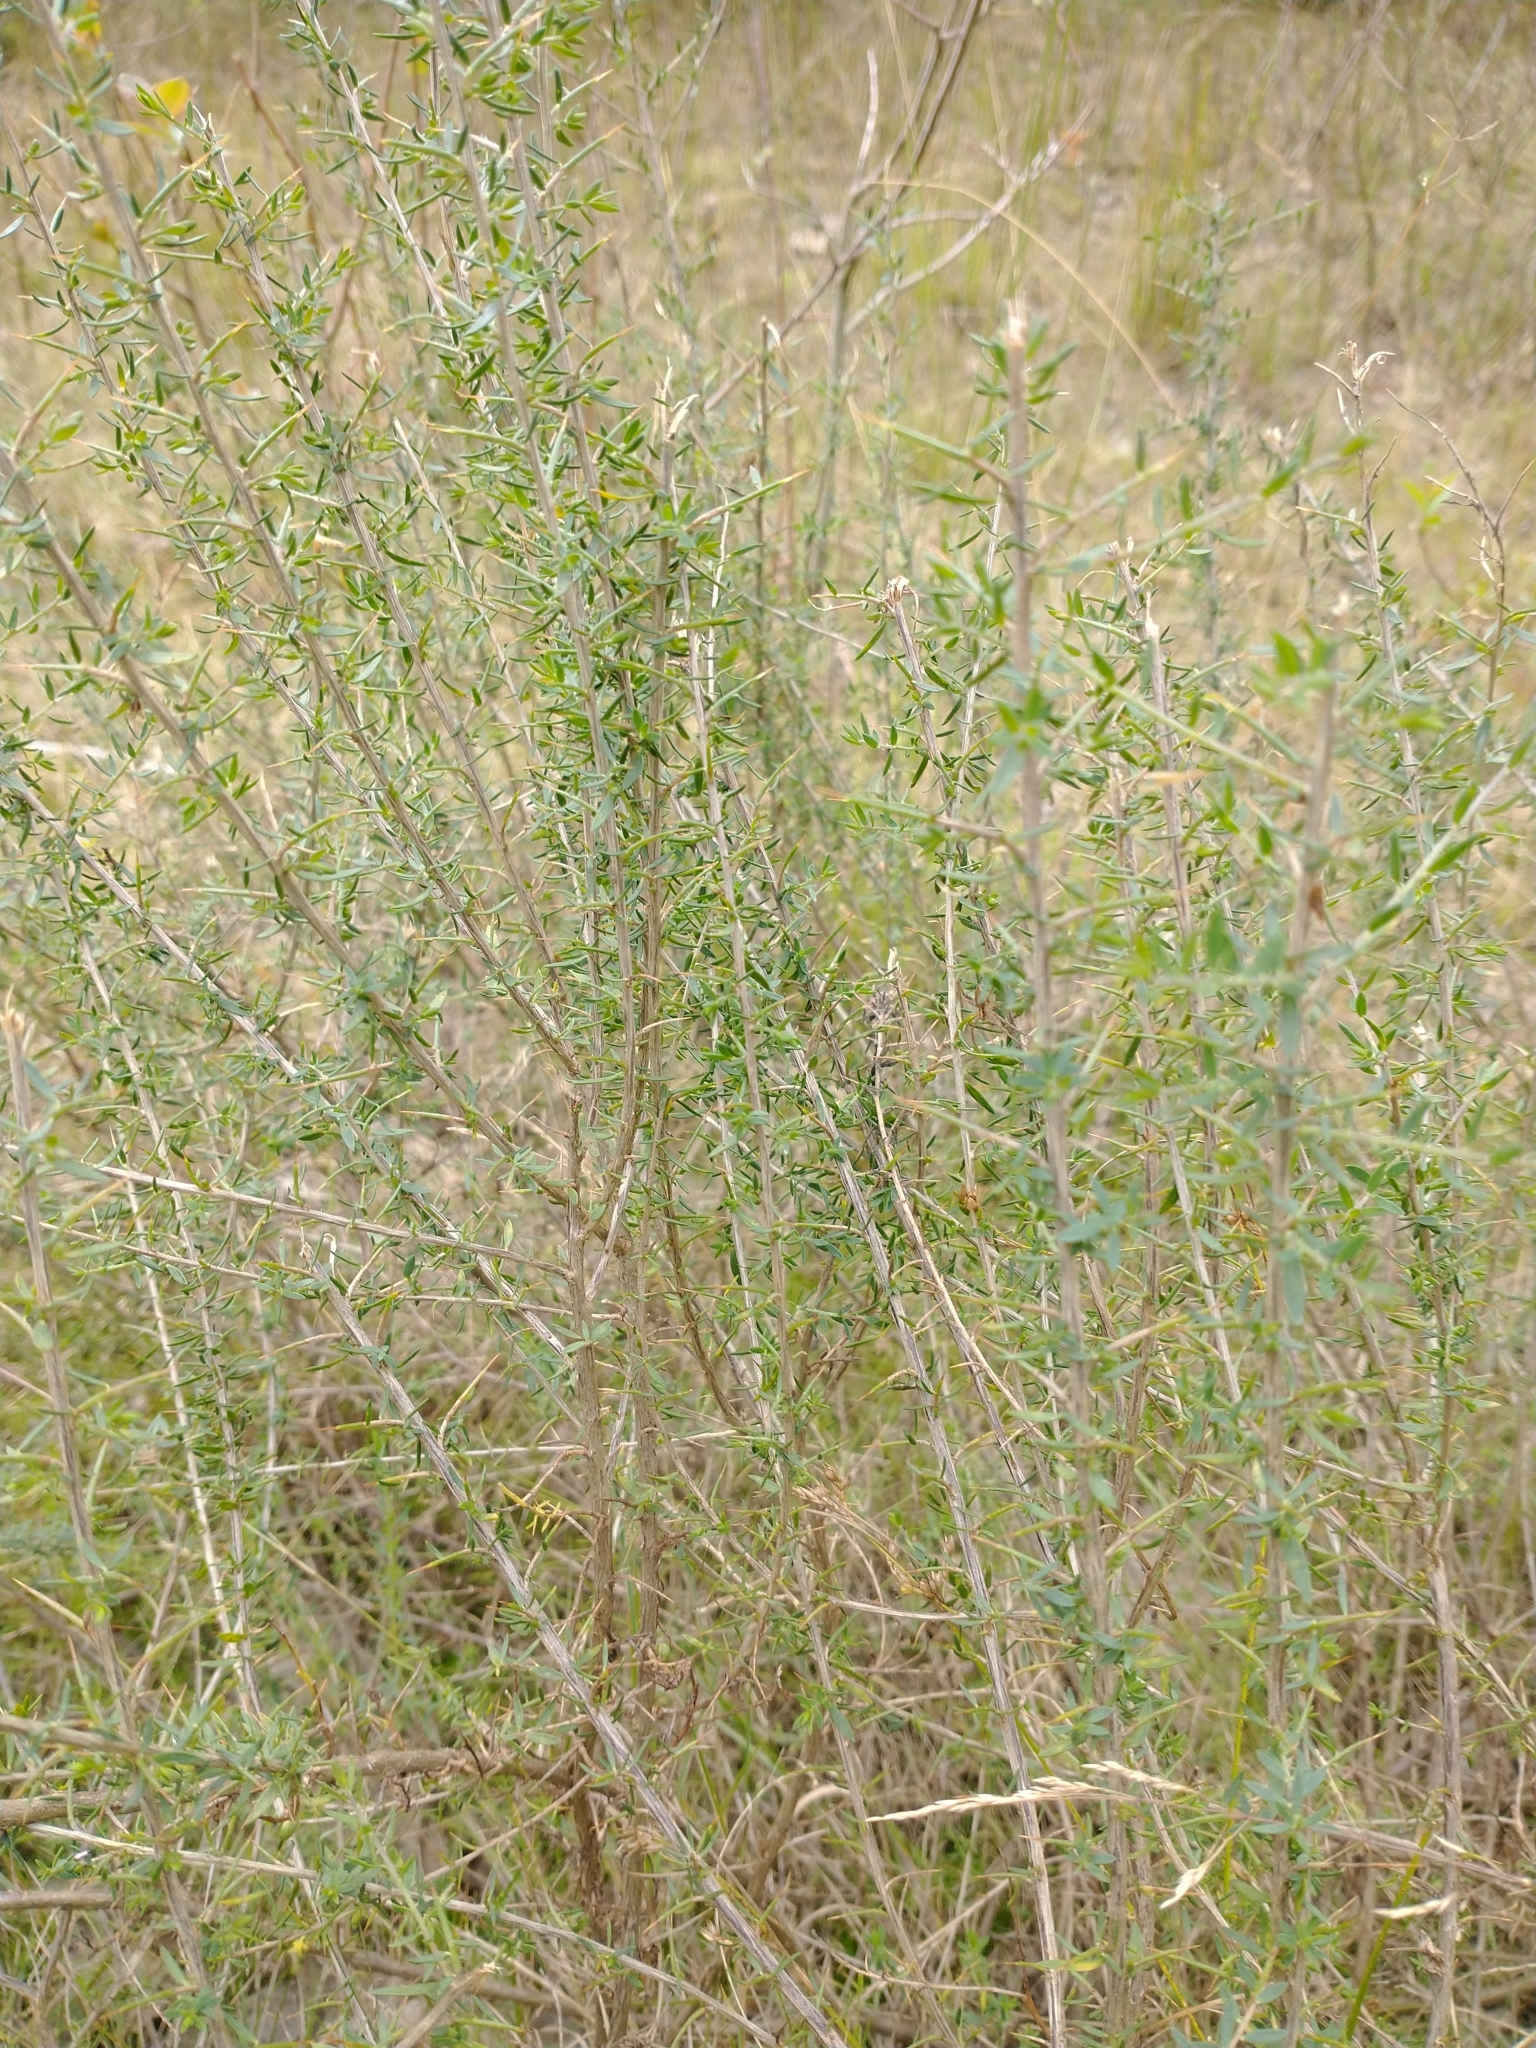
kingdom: Plantae
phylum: Tracheophyta
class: Magnoliopsida
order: Fabales
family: Fabaceae
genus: Genista
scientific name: Genista anglica
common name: Petty whin
